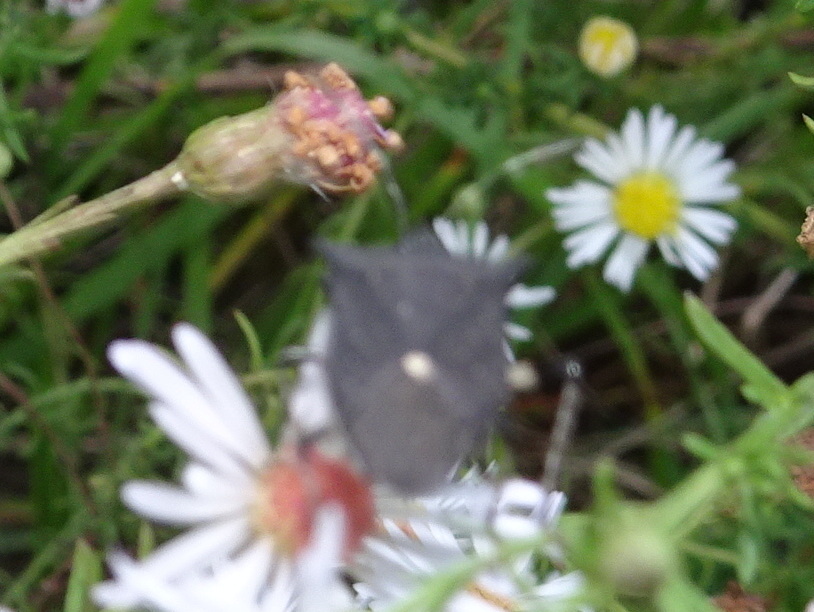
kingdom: Animalia
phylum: Arthropoda
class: Insecta
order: Hemiptera
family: Pentatomidae
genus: Proxys
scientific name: Proxys punctulatus
